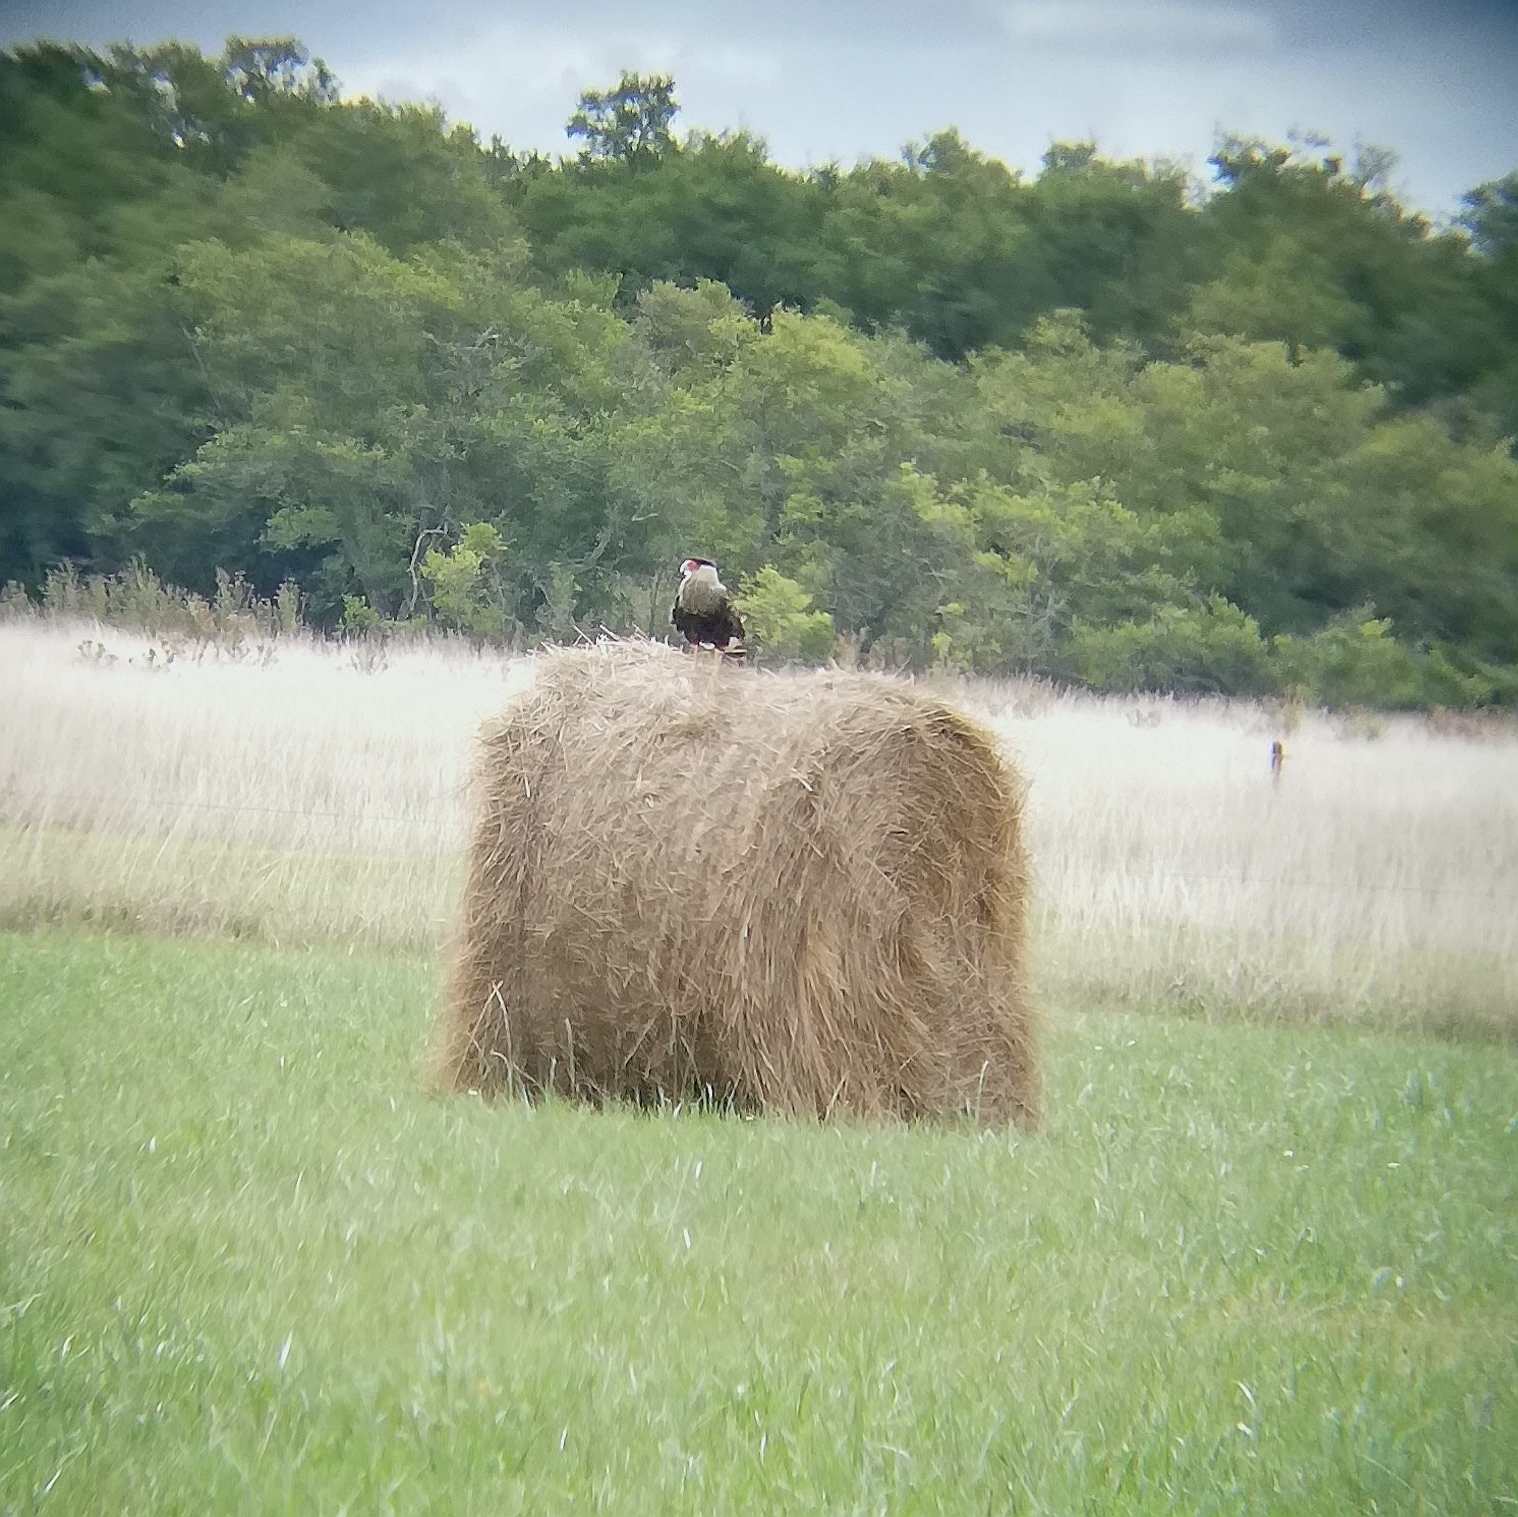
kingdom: Animalia
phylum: Chordata
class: Aves
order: Falconiformes
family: Falconidae
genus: Caracara
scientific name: Caracara plancus
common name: Southern caracara
